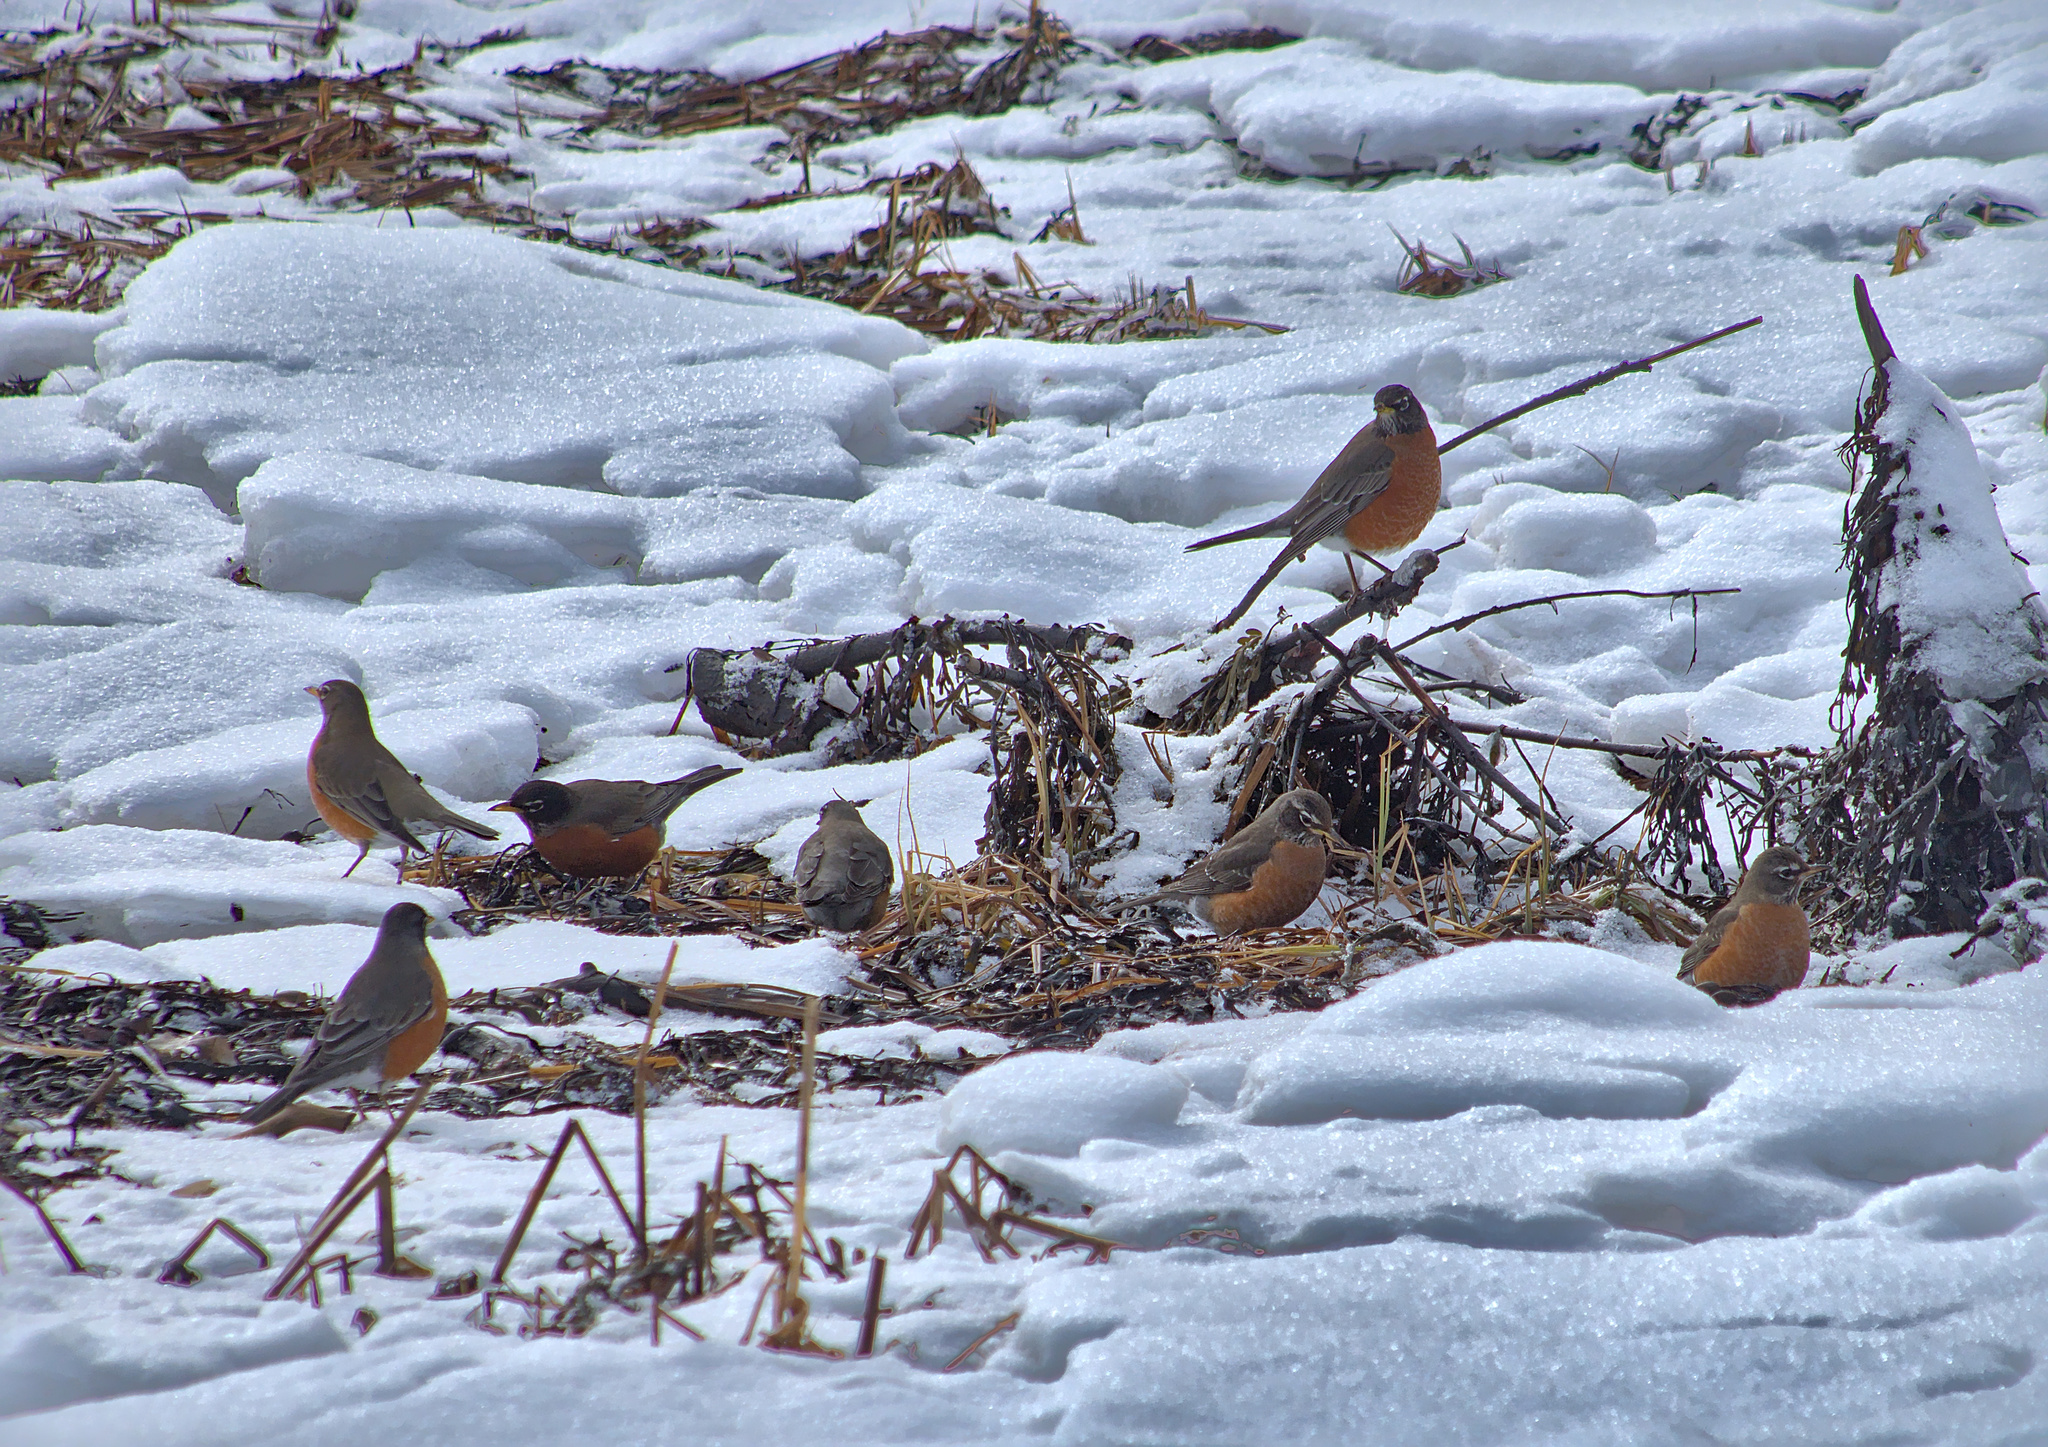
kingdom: Animalia
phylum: Chordata
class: Aves
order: Passeriformes
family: Turdidae
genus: Turdus
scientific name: Turdus migratorius
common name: American robin
